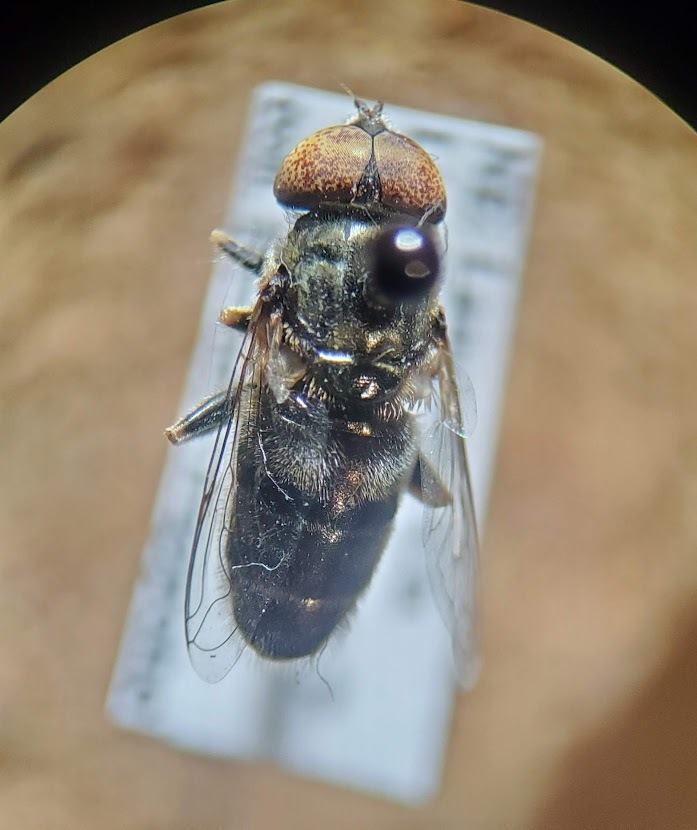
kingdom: Animalia
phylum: Arthropoda
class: Insecta
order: Diptera
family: Syrphidae
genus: Eristalinus
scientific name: Eristalinus aeneus
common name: Syrphid fly
